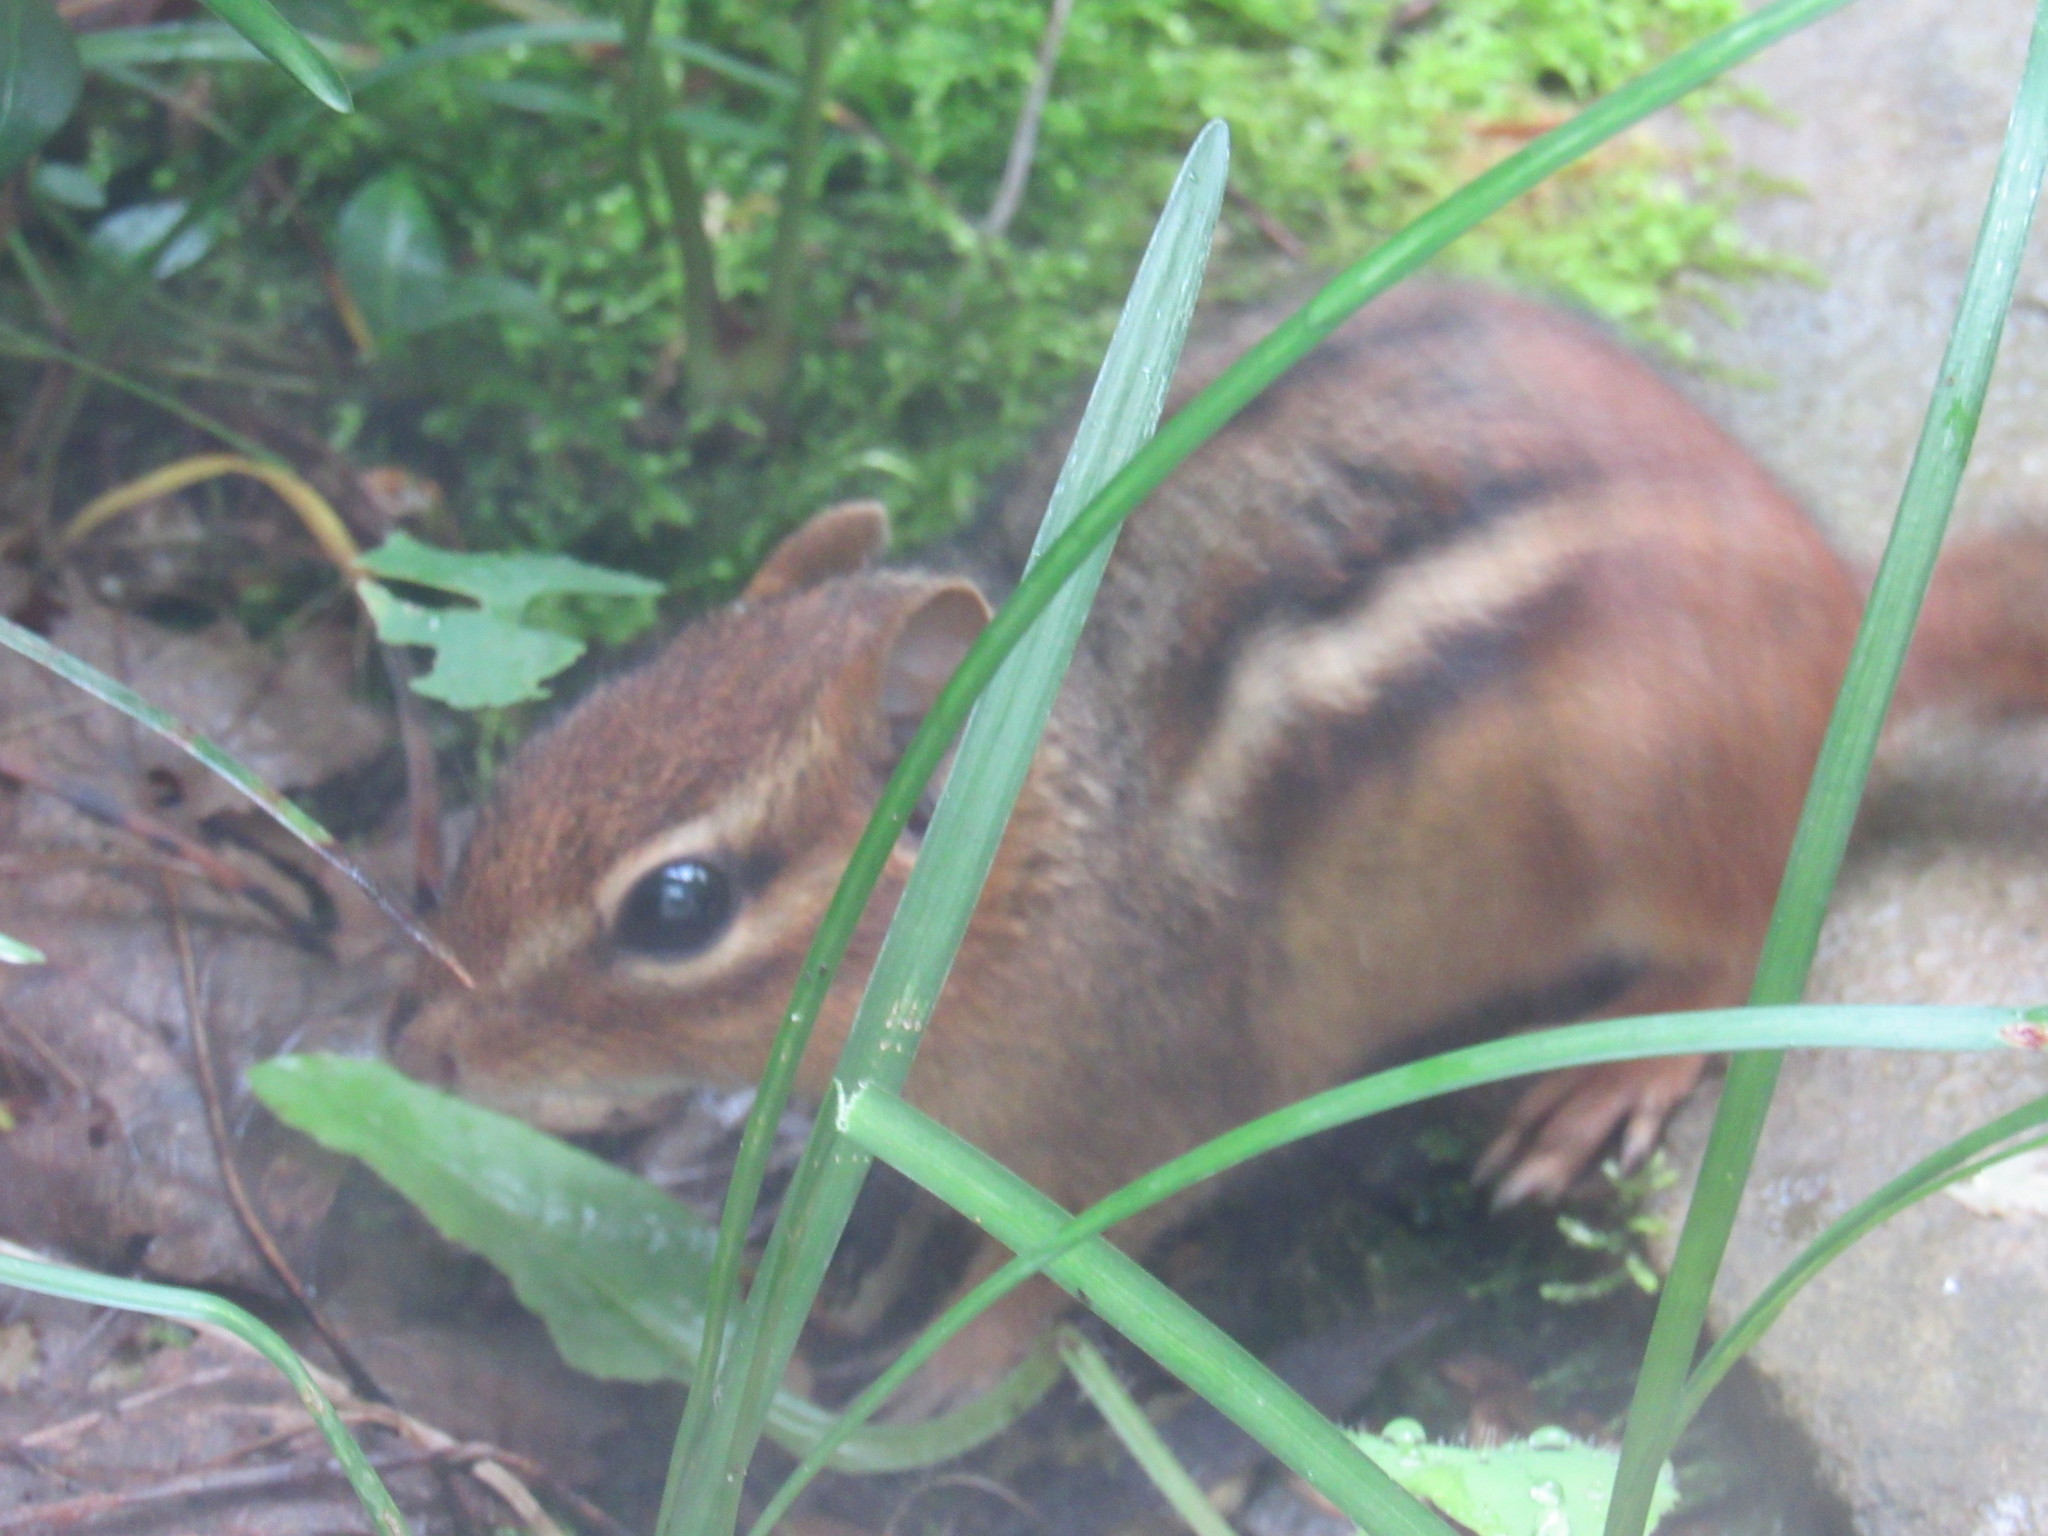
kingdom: Animalia
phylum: Chordata
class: Mammalia
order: Rodentia
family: Sciuridae
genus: Tamias
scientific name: Tamias striatus
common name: Eastern chipmunk
